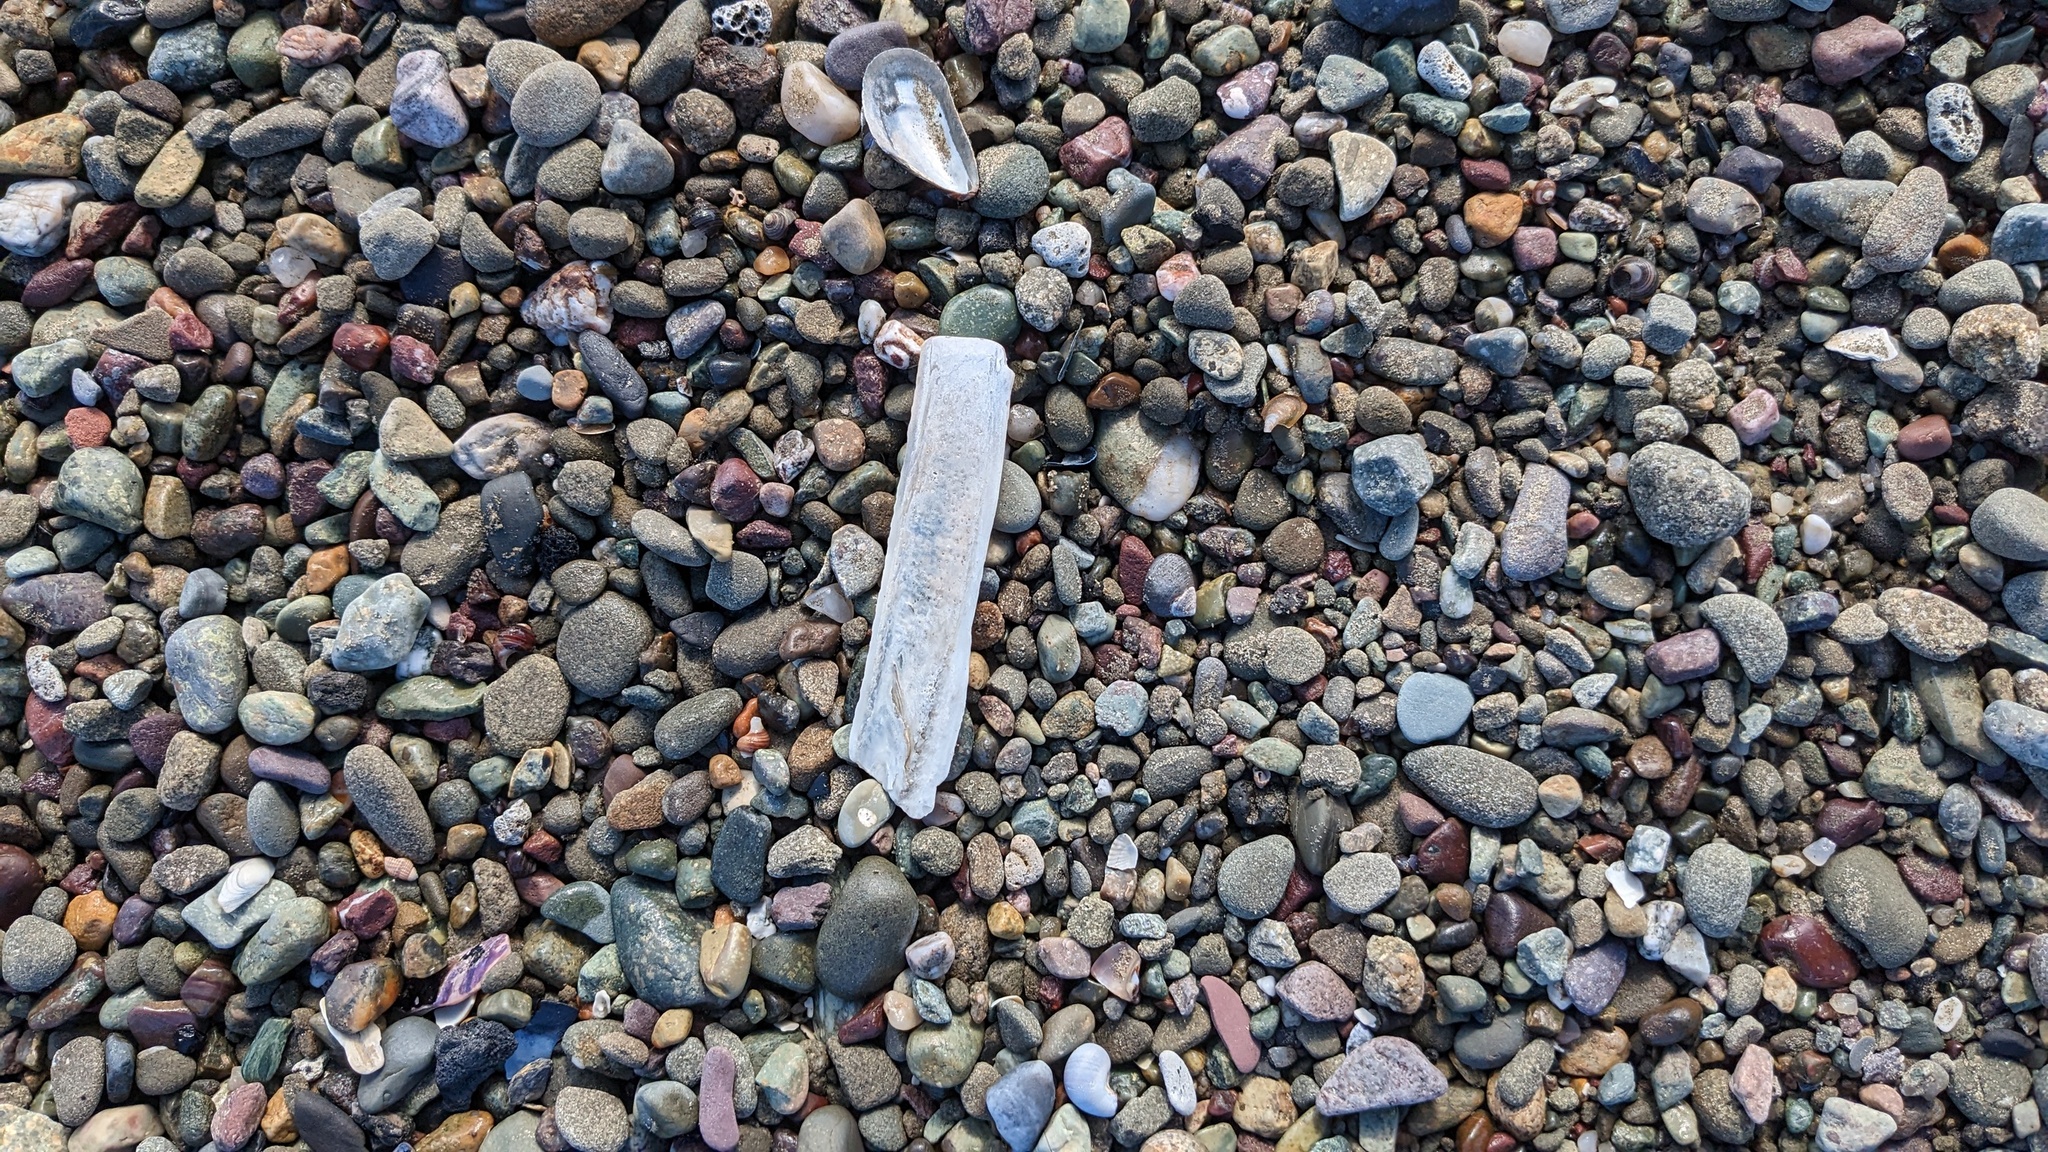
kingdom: Animalia
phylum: Mollusca
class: Bivalvia
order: Adapedonta
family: Pharidae
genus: Ensis
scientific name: Ensis leei
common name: American jack knife clam
